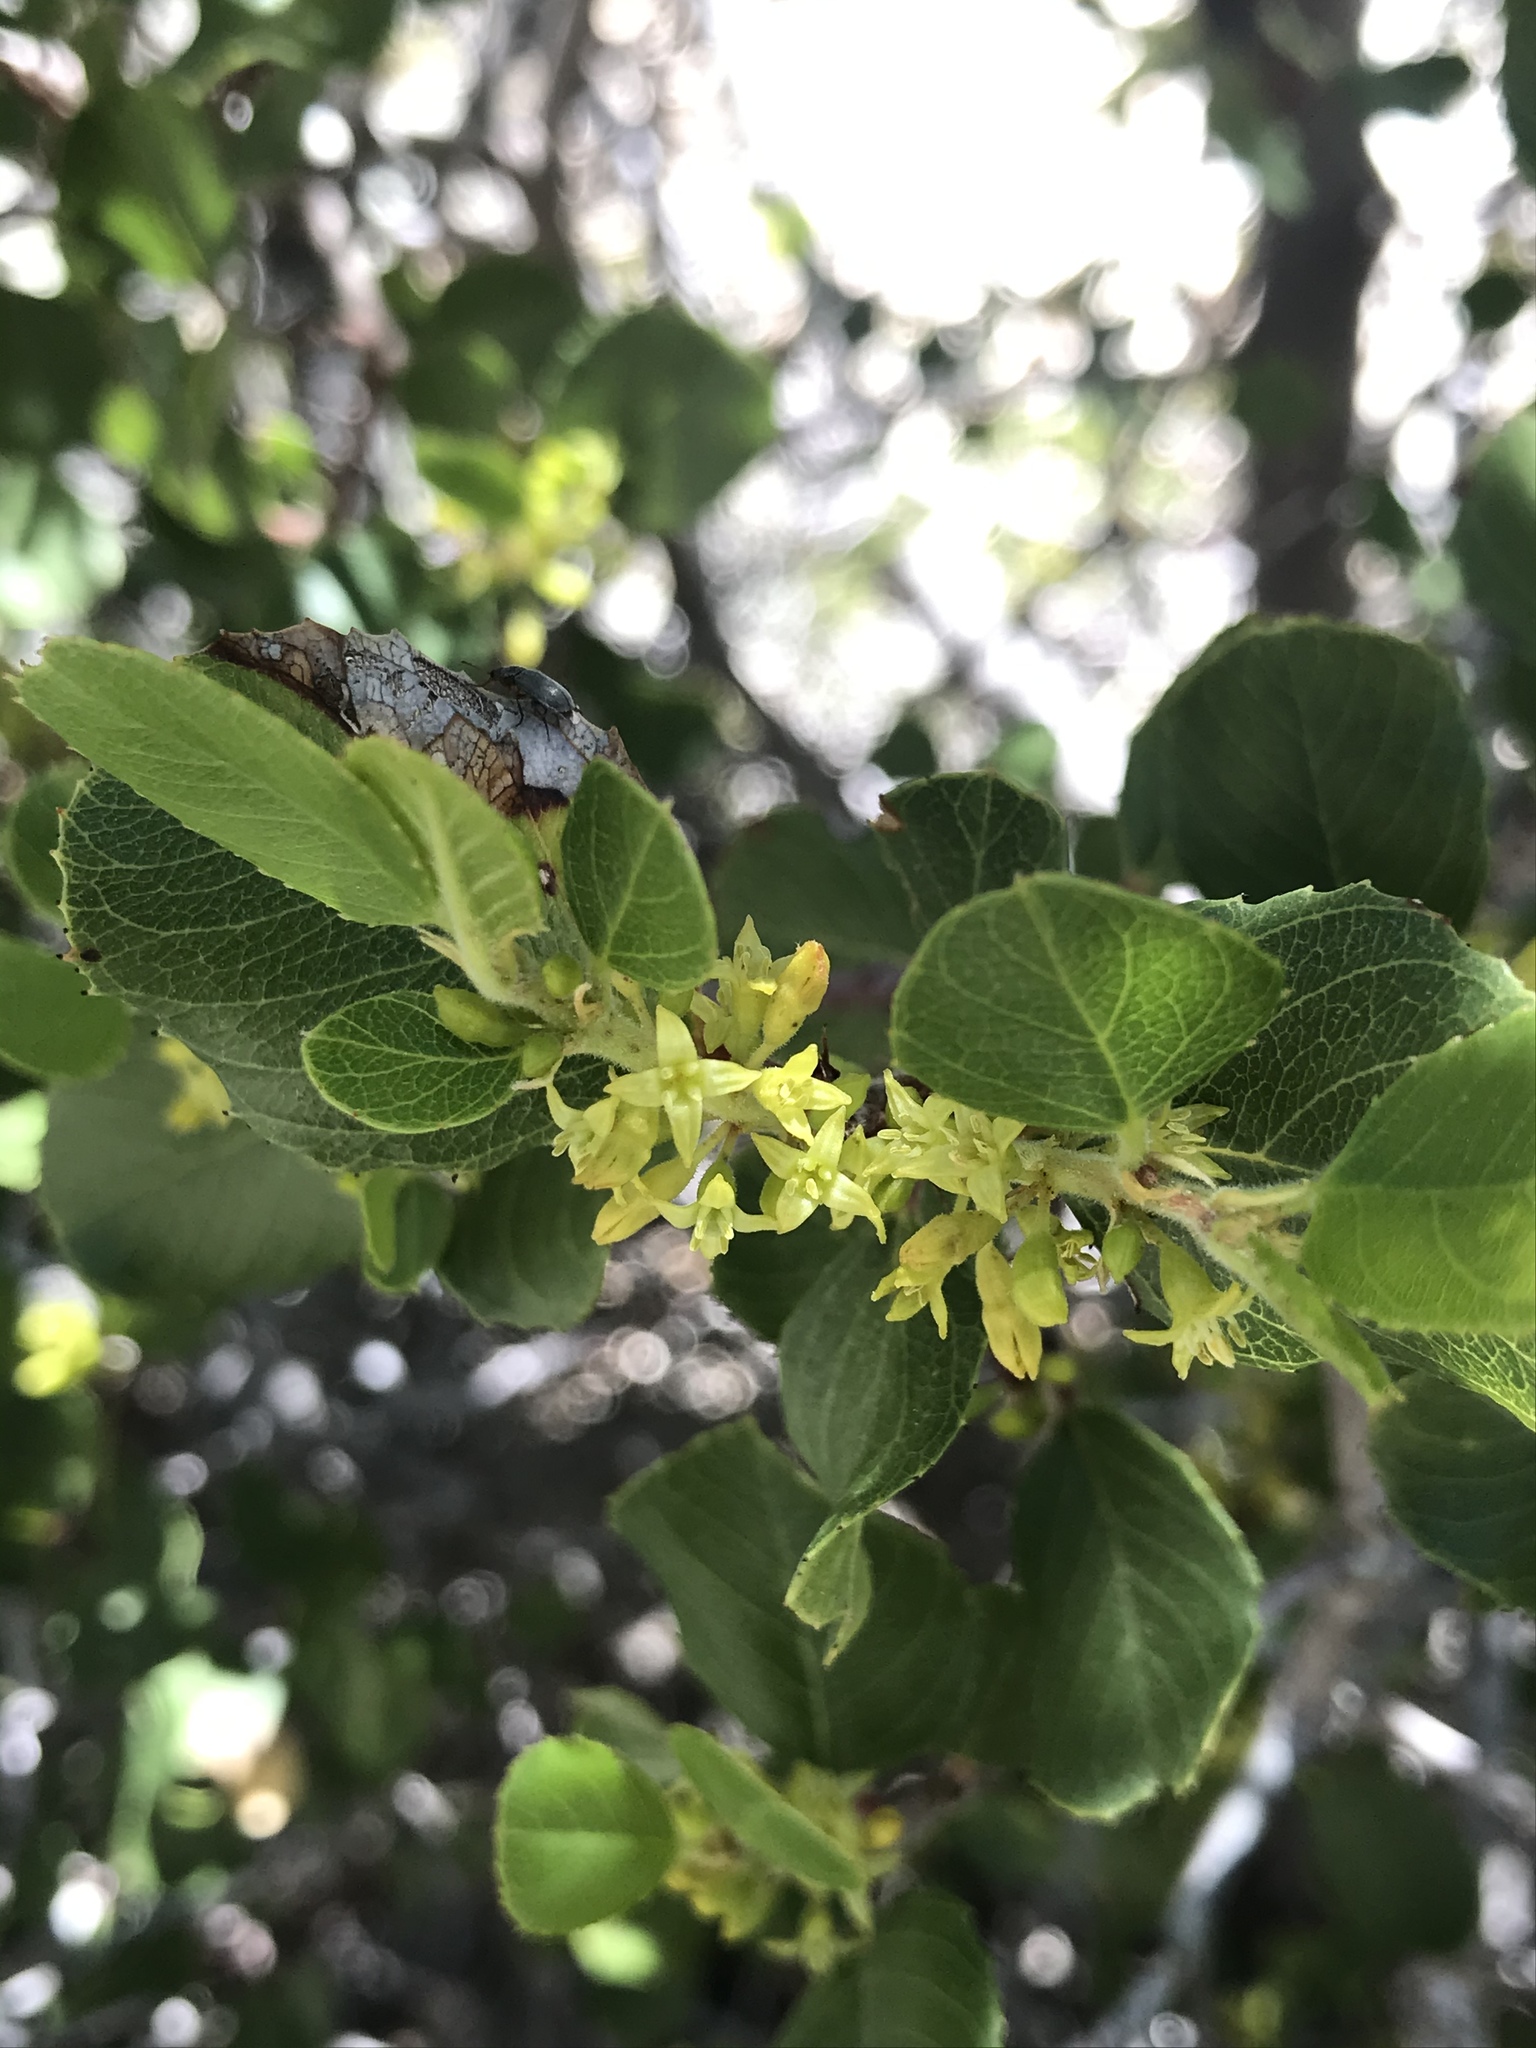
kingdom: Plantae
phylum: Tracheophyta
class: Magnoliopsida
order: Rosales
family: Rhamnaceae
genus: Endotropis
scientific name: Endotropis crocea
